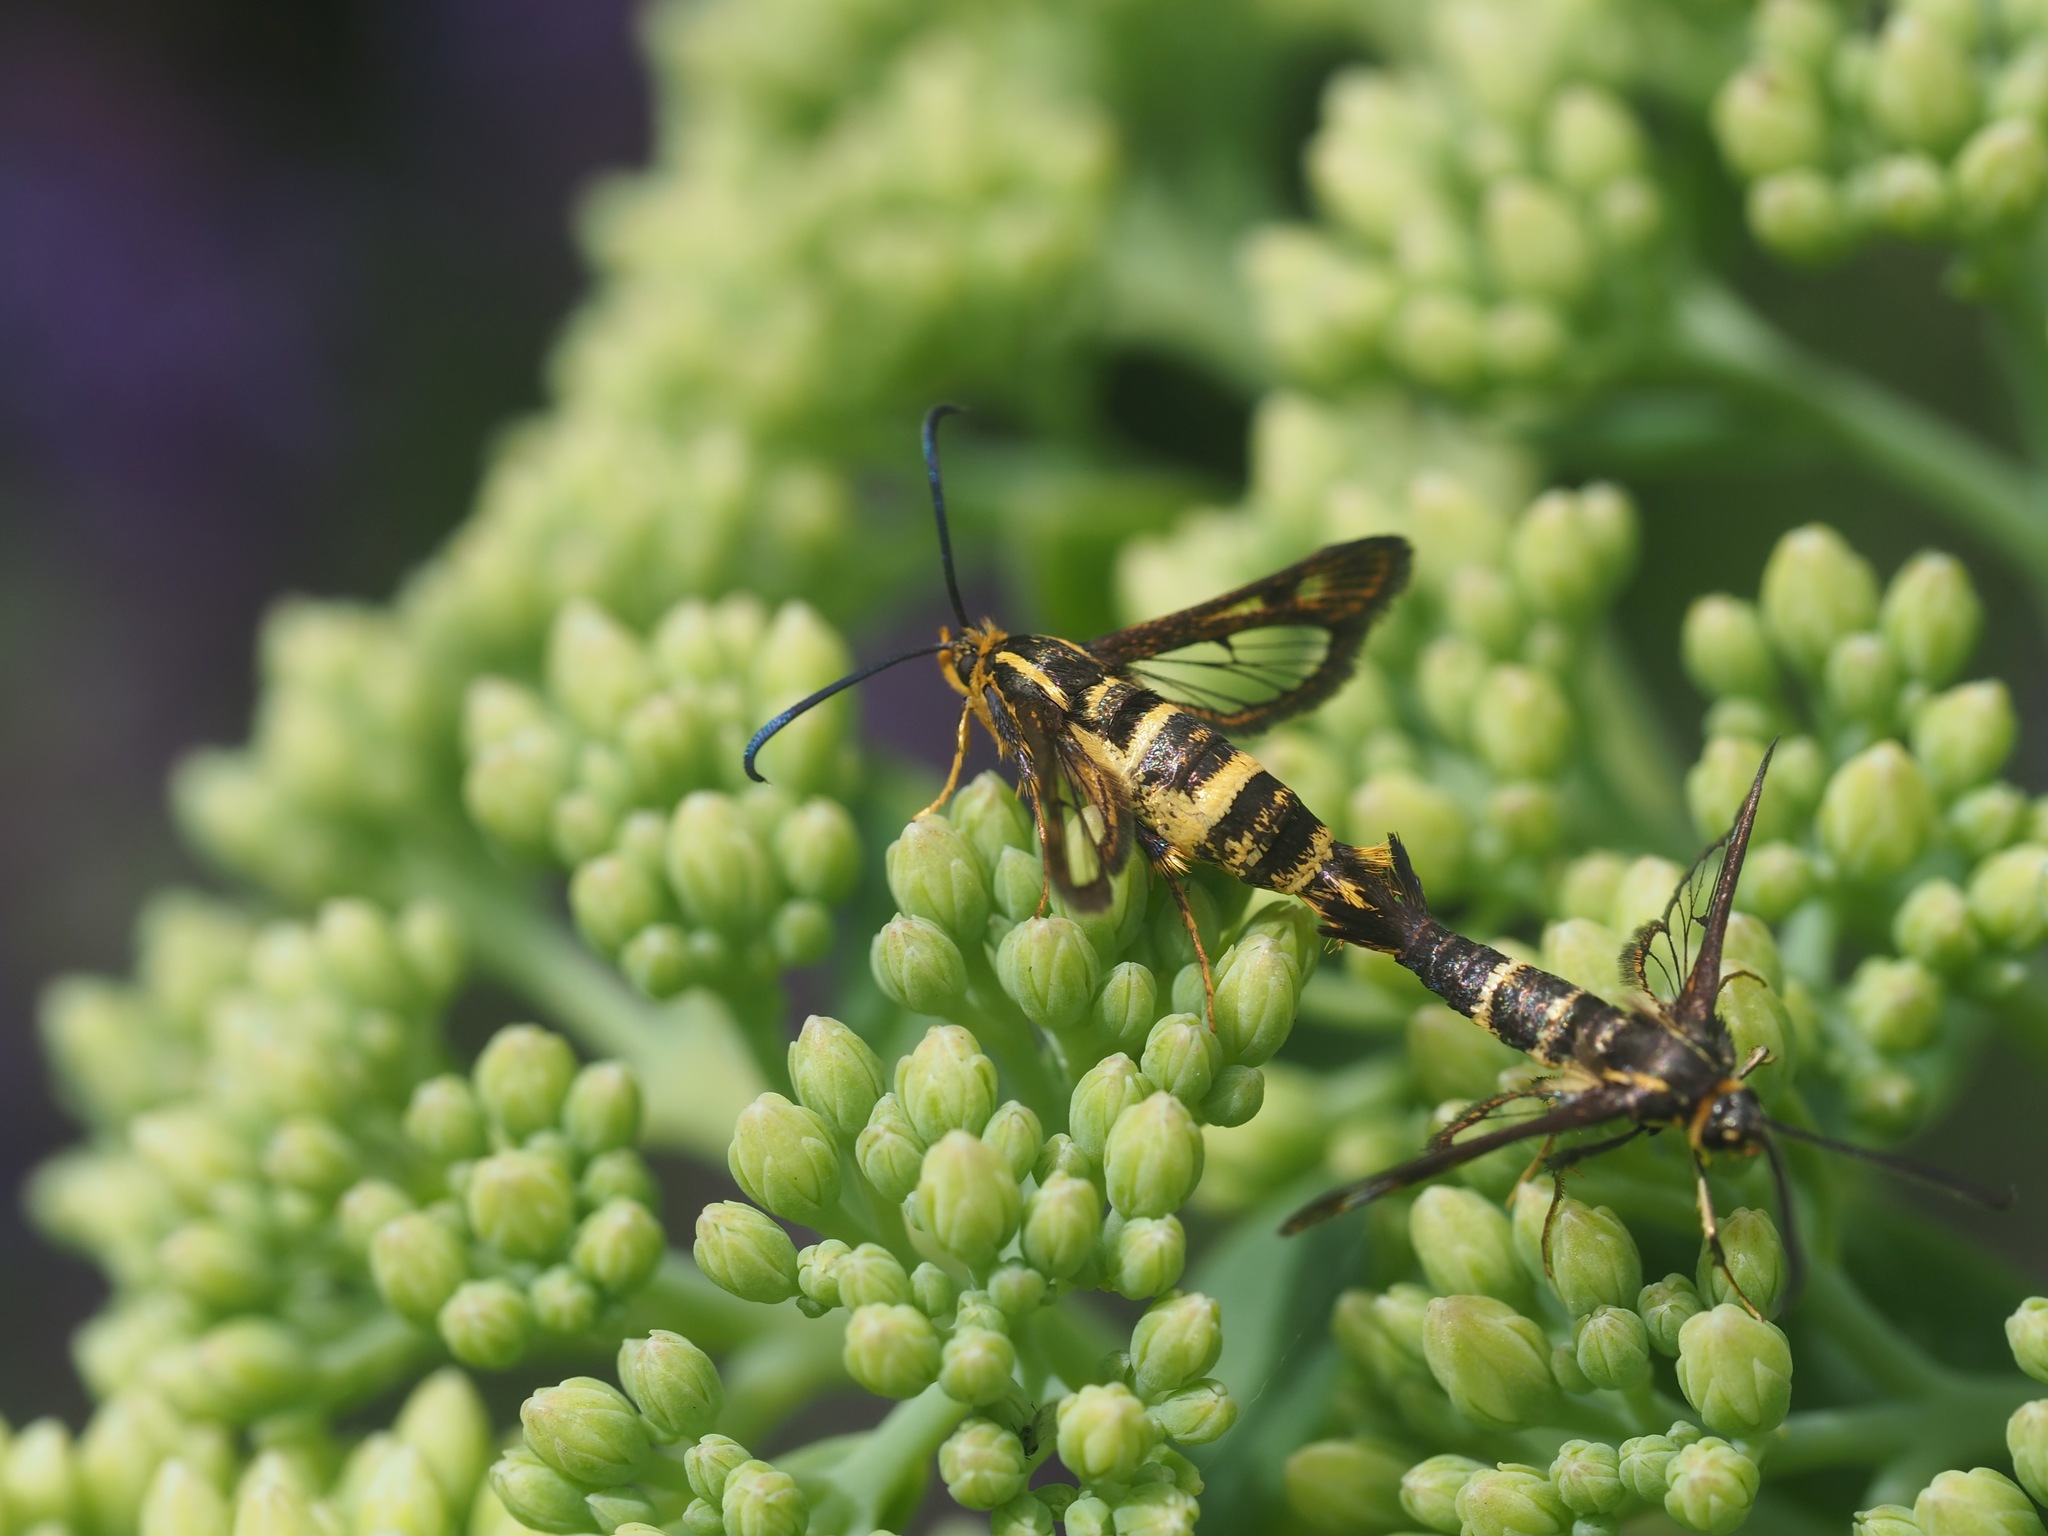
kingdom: Animalia
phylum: Arthropoda
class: Insecta
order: Lepidoptera
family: Sesiidae
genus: Synanthedon
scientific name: Synanthedon bibionipennis
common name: Strawberry crown moth
